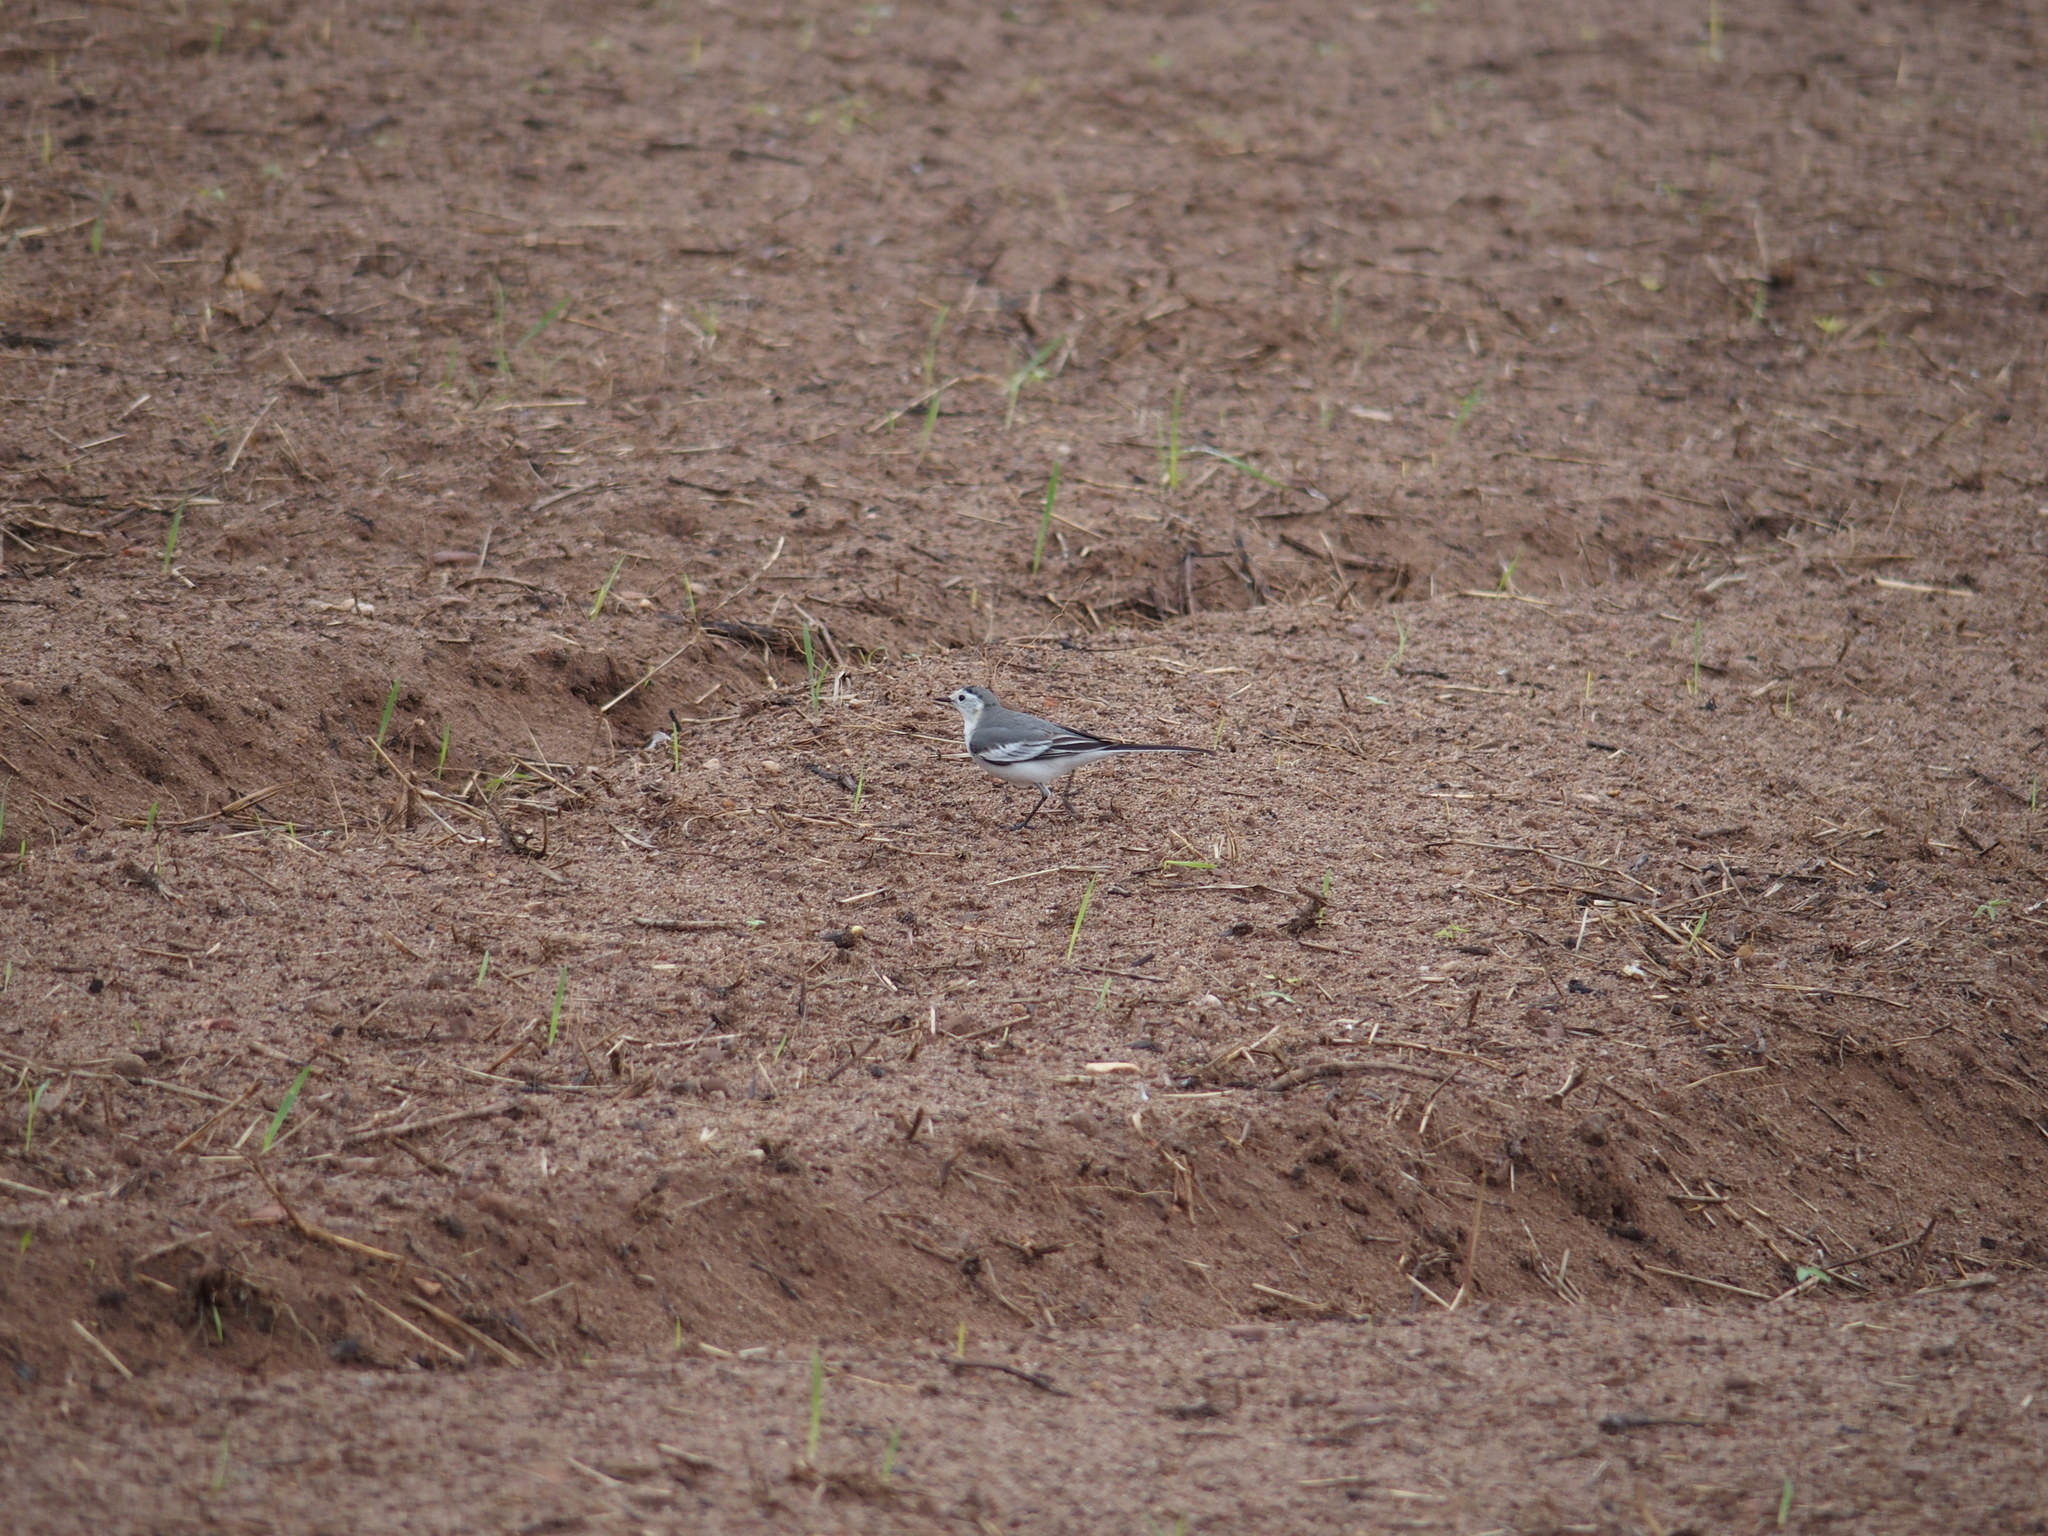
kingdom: Animalia
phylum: Chordata
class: Aves
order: Passeriformes
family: Motacillidae
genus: Motacilla
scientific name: Motacilla alba
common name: White wagtail
